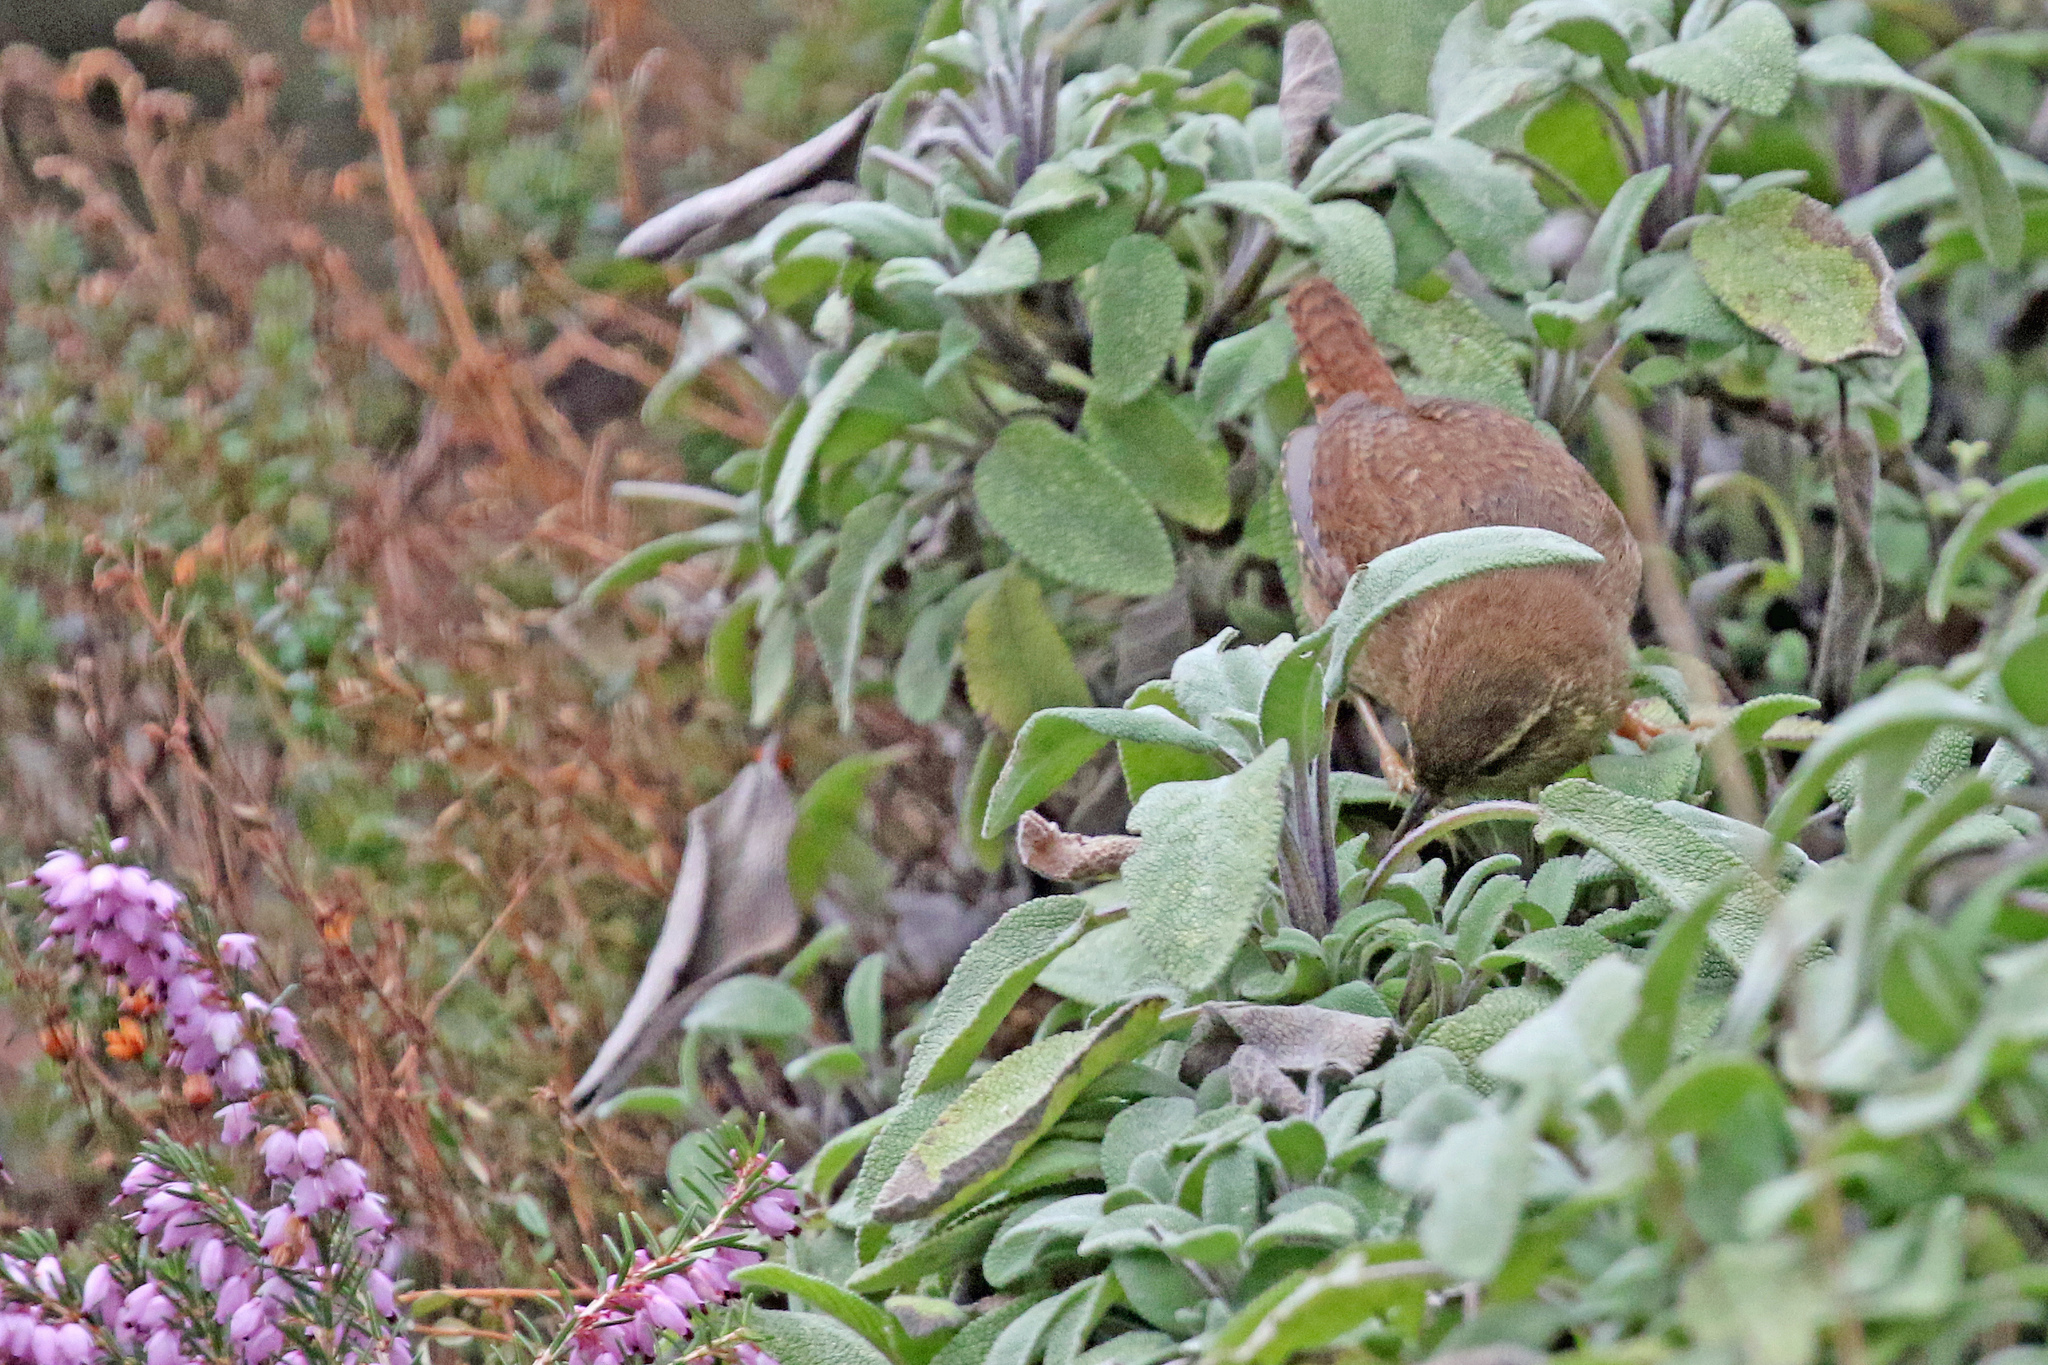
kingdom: Animalia
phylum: Chordata
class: Aves
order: Passeriformes
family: Troglodytidae
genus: Troglodytes
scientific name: Troglodytes troglodytes
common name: Eurasian wren
